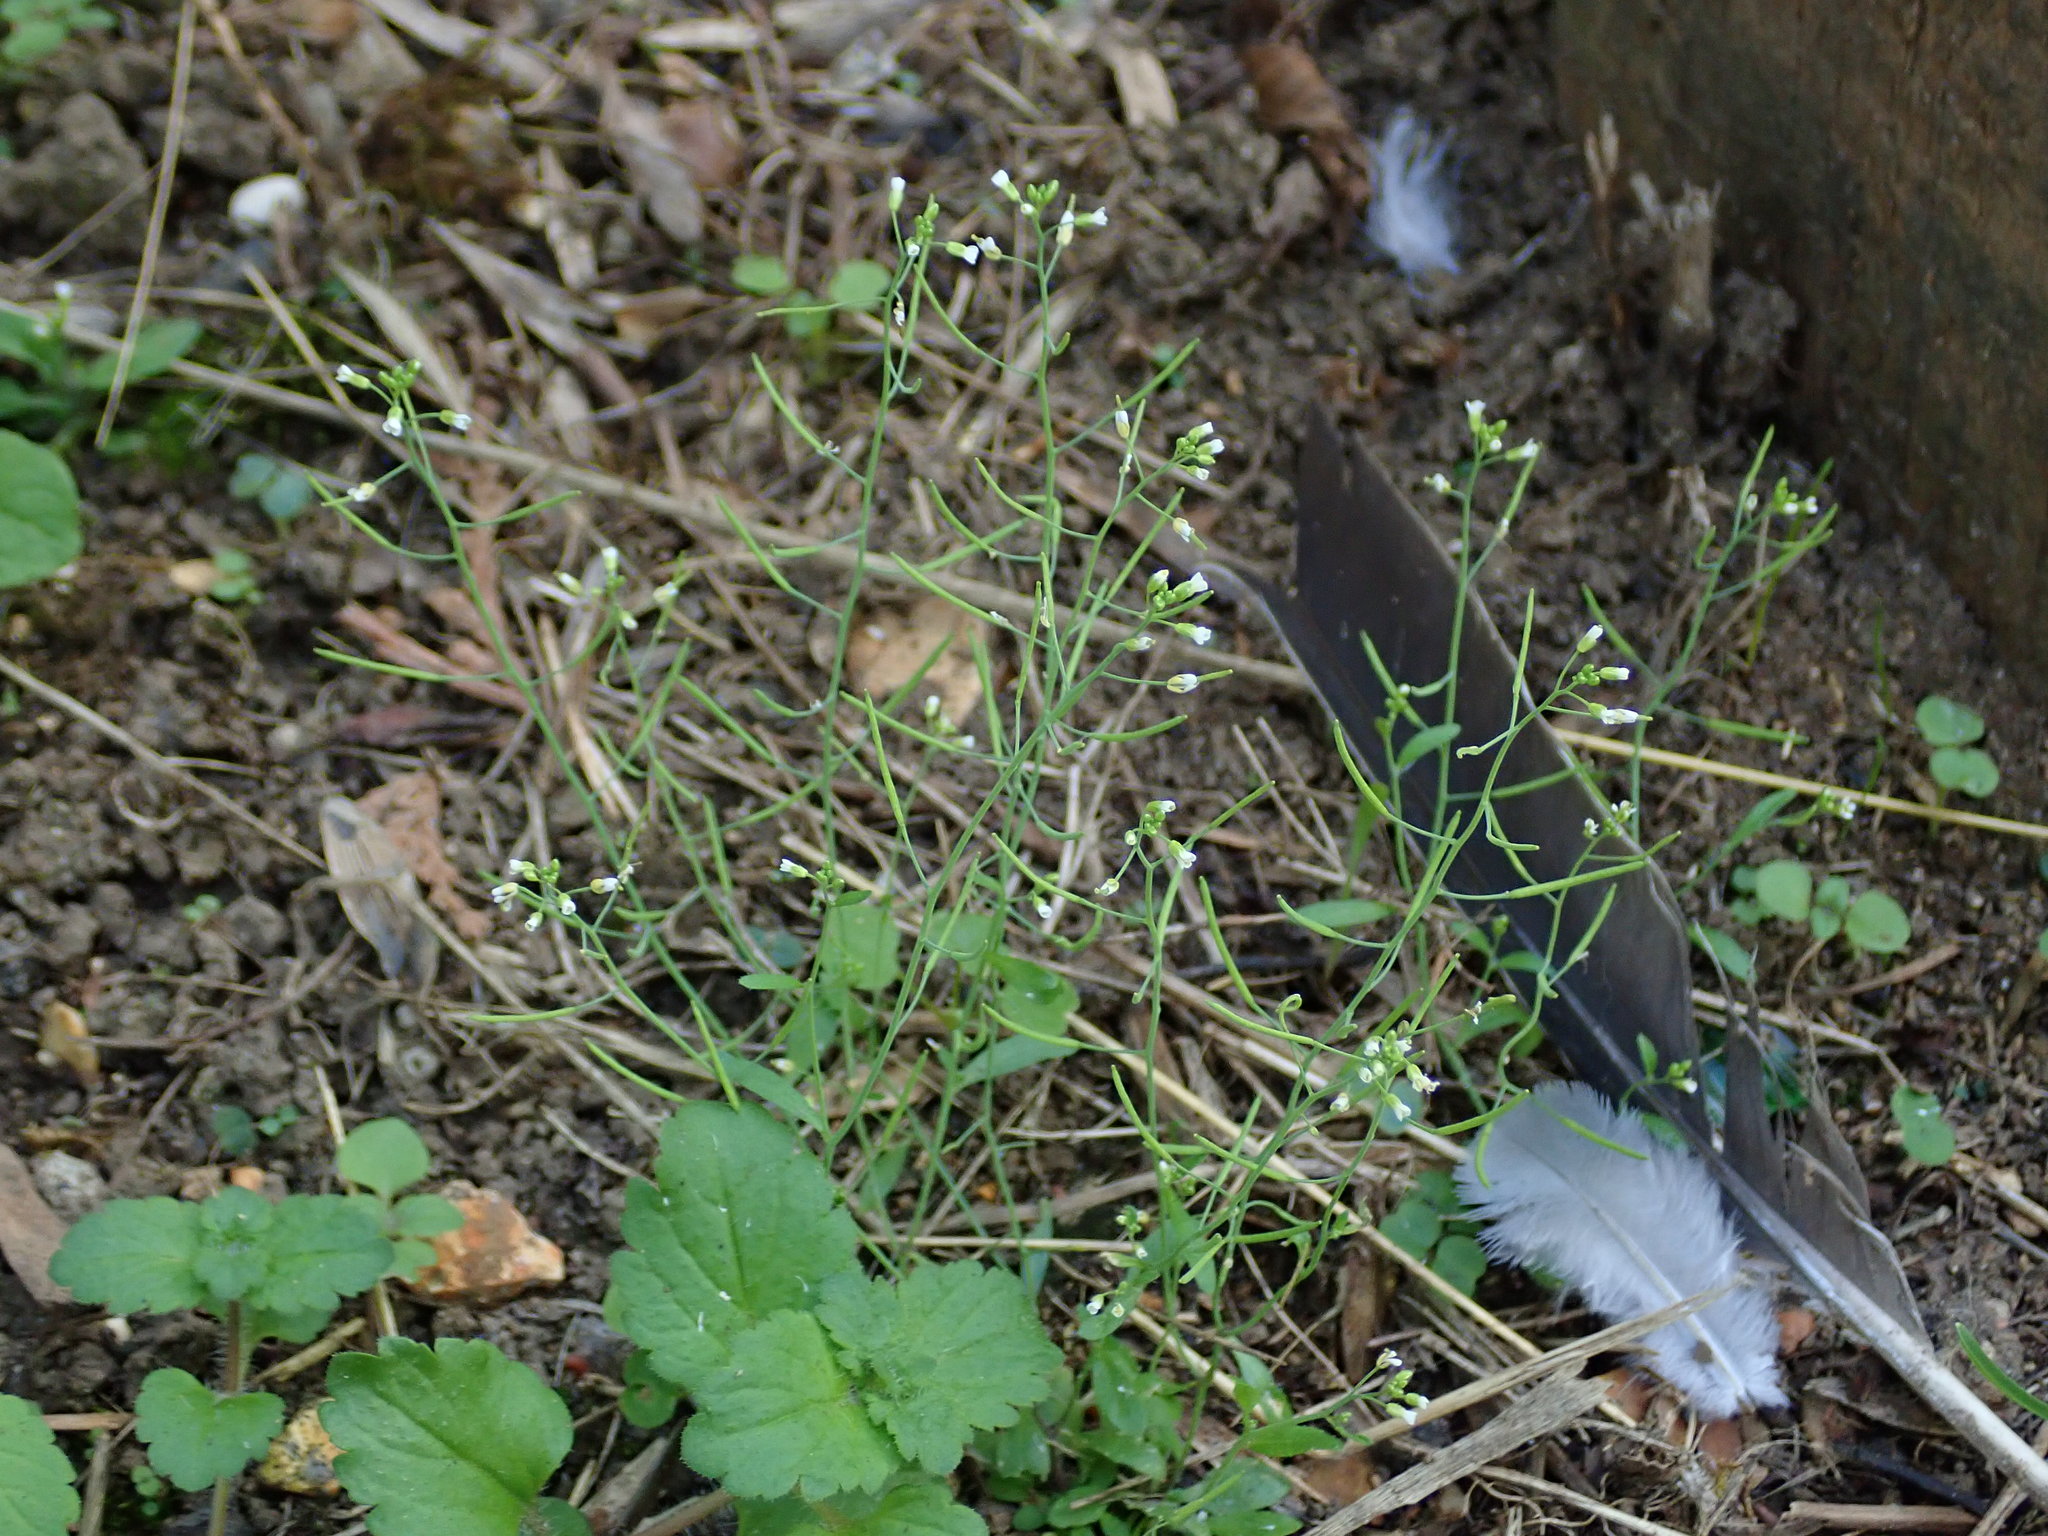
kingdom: Plantae
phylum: Tracheophyta
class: Magnoliopsida
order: Brassicales
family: Brassicaceae
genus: Arabidopsis
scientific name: Arabidopsis thaliana
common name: Thale cress
